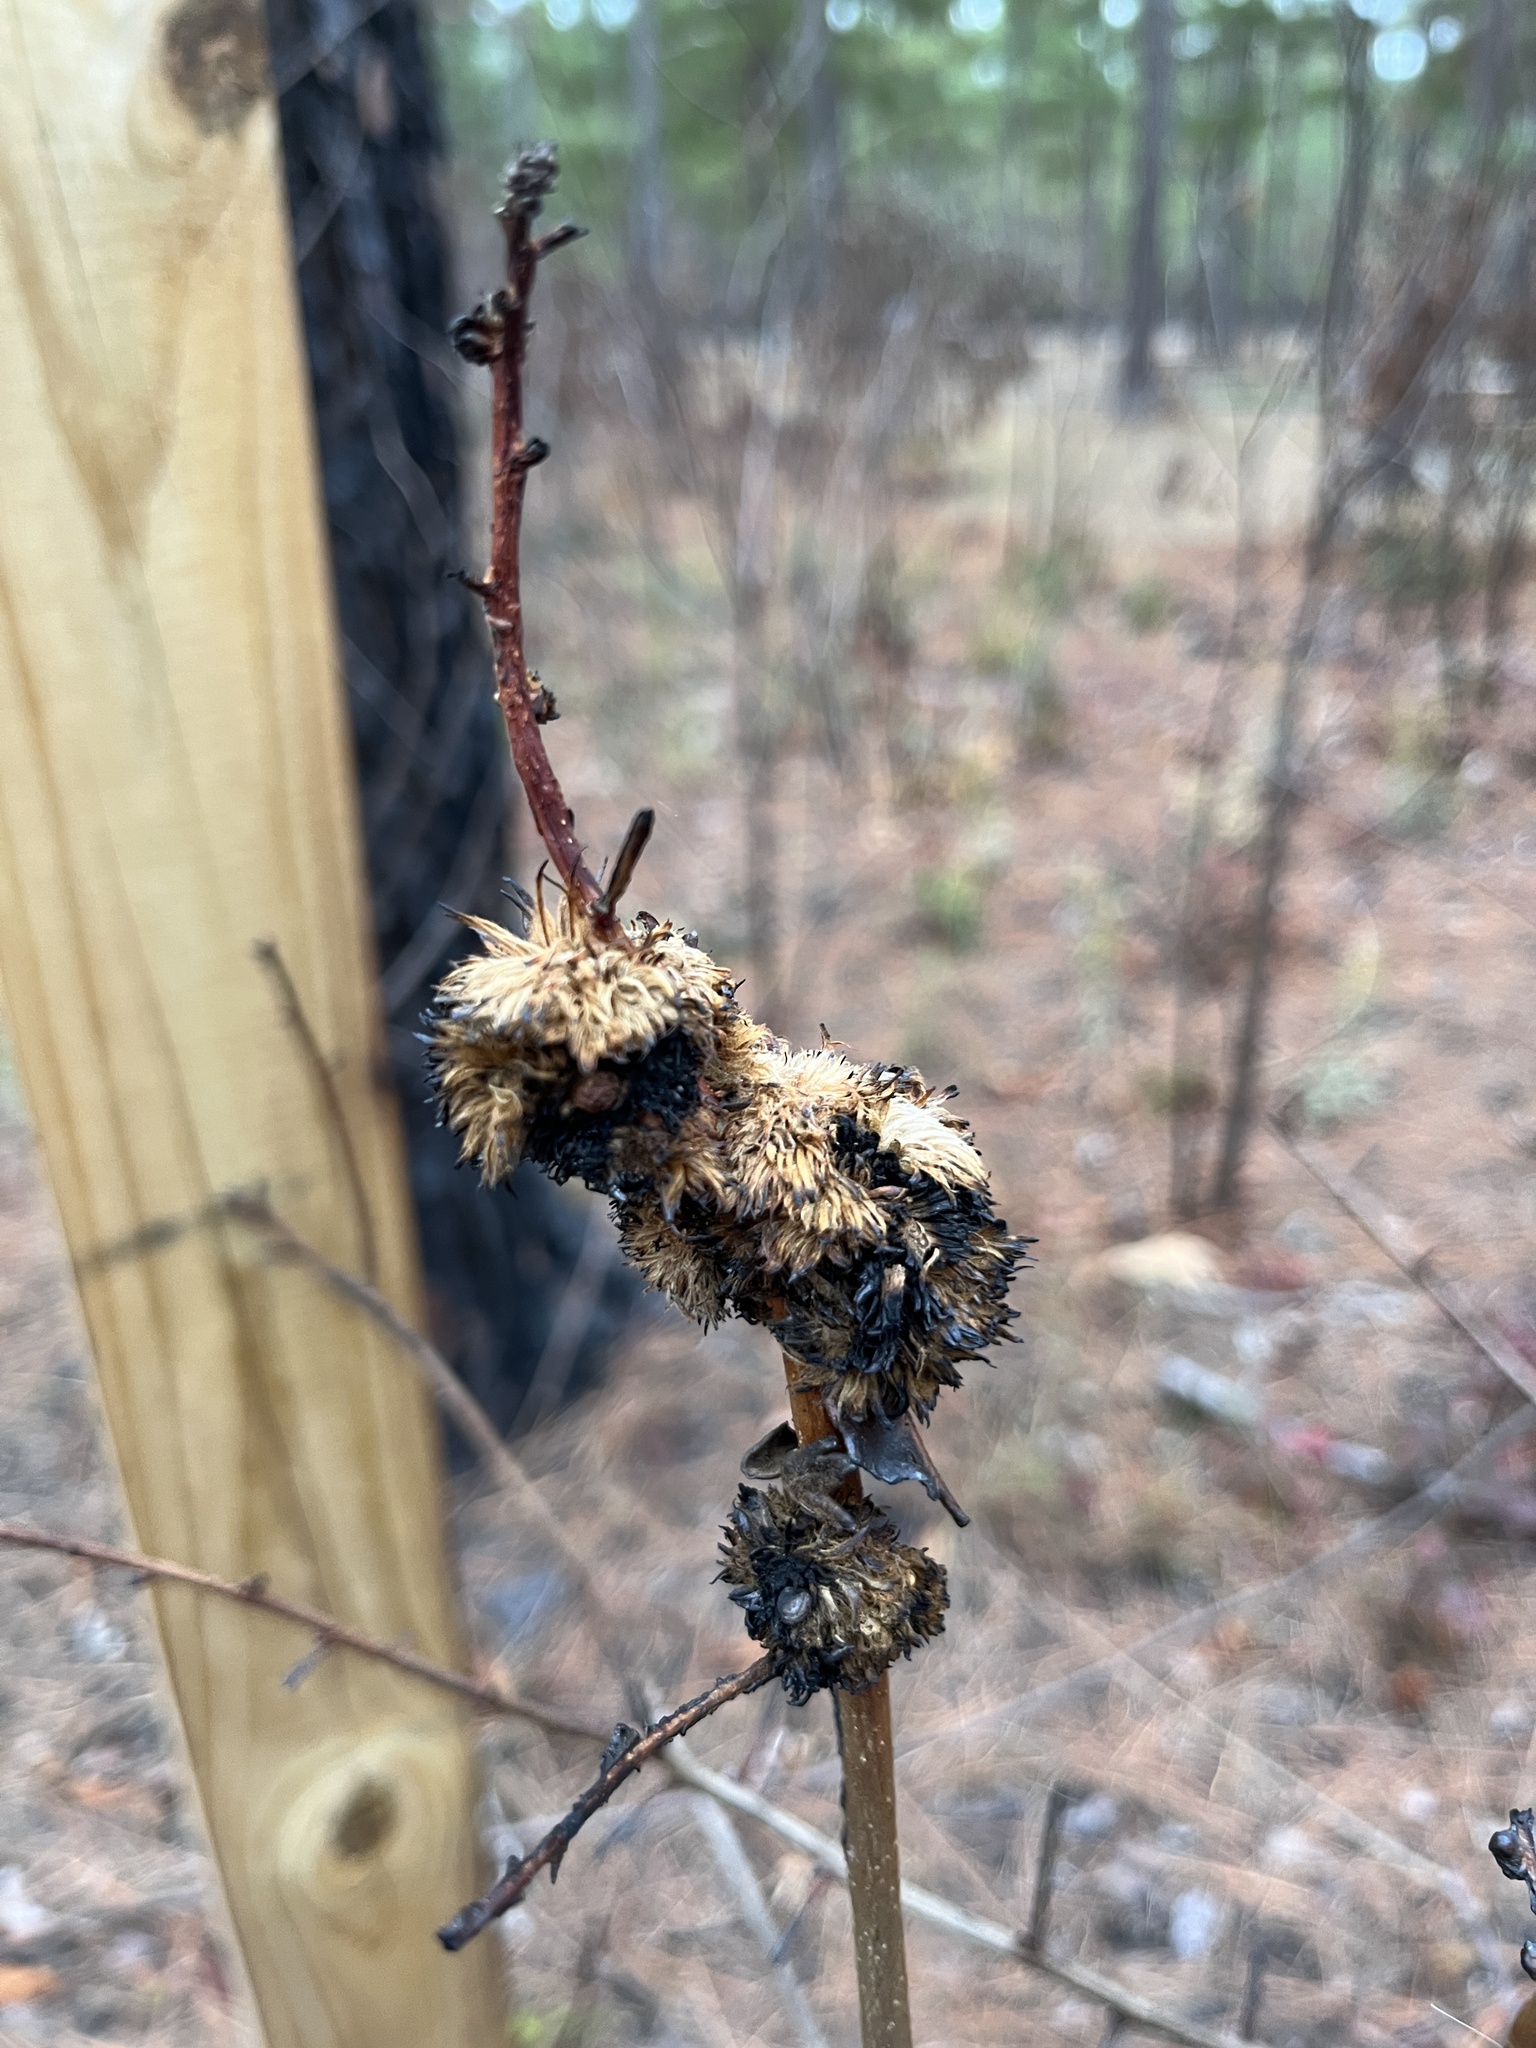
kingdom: Animalia
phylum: Arthropoda
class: Insecta
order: Hymenoptera
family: Cynipidae
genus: Andricus
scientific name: Andricus
